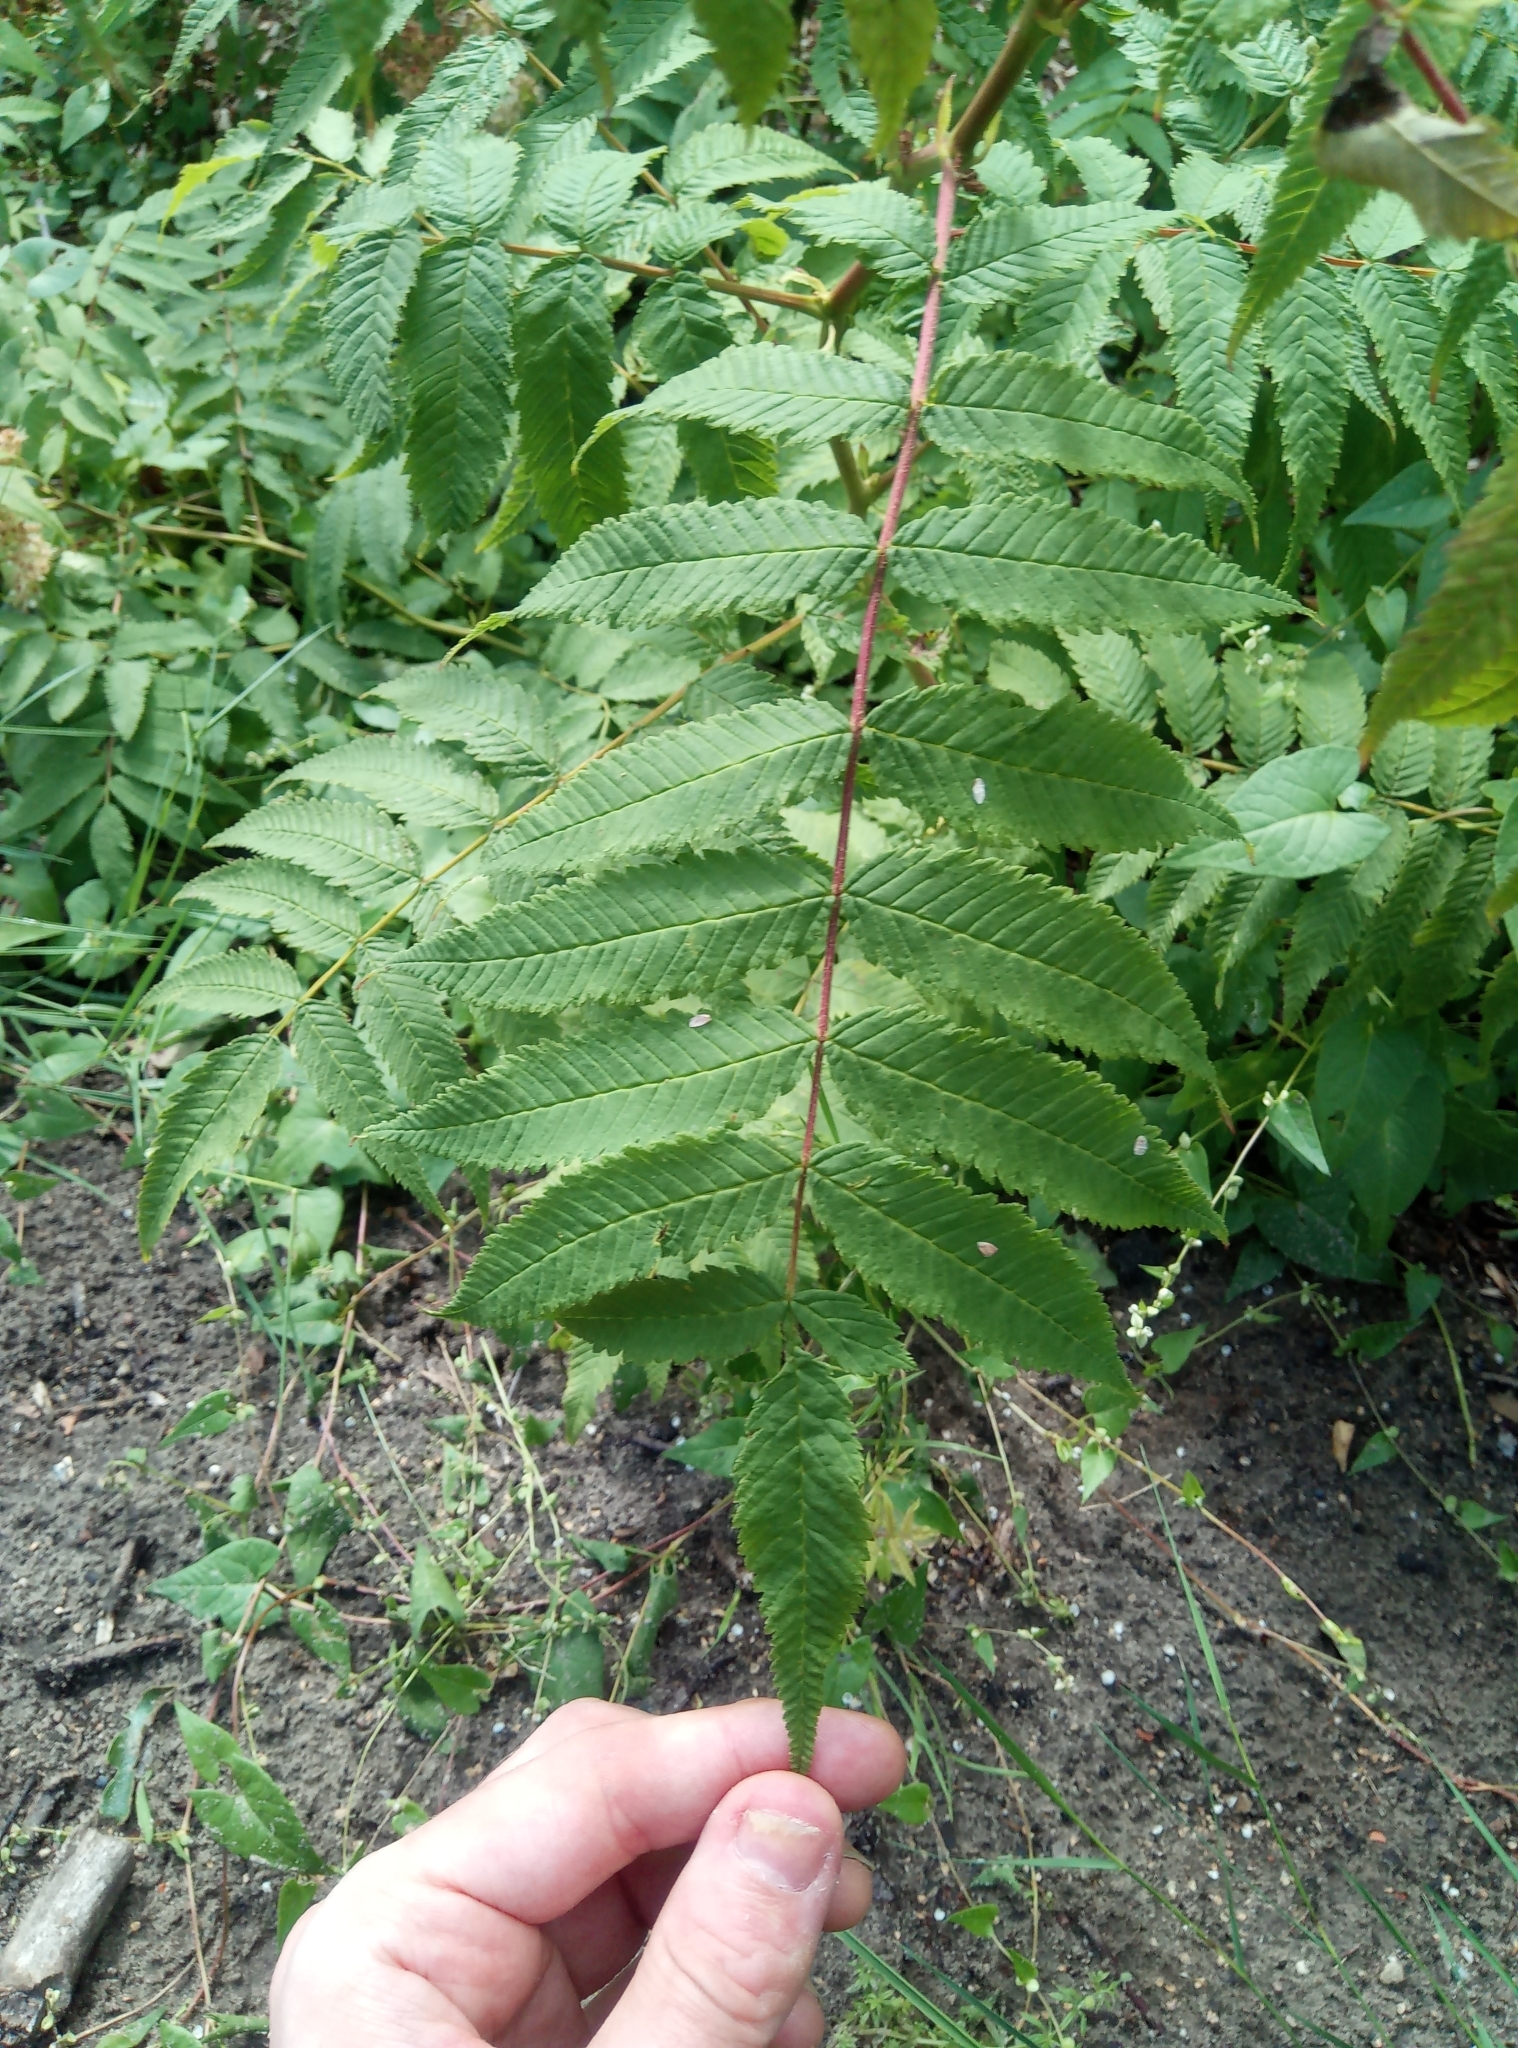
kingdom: Plantae
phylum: Tracheophyta
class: Magnoliopsida
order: Rosales
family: Rosaceae
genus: Sorbaria
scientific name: Sorbaria sorbifolia
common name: False spiraea
